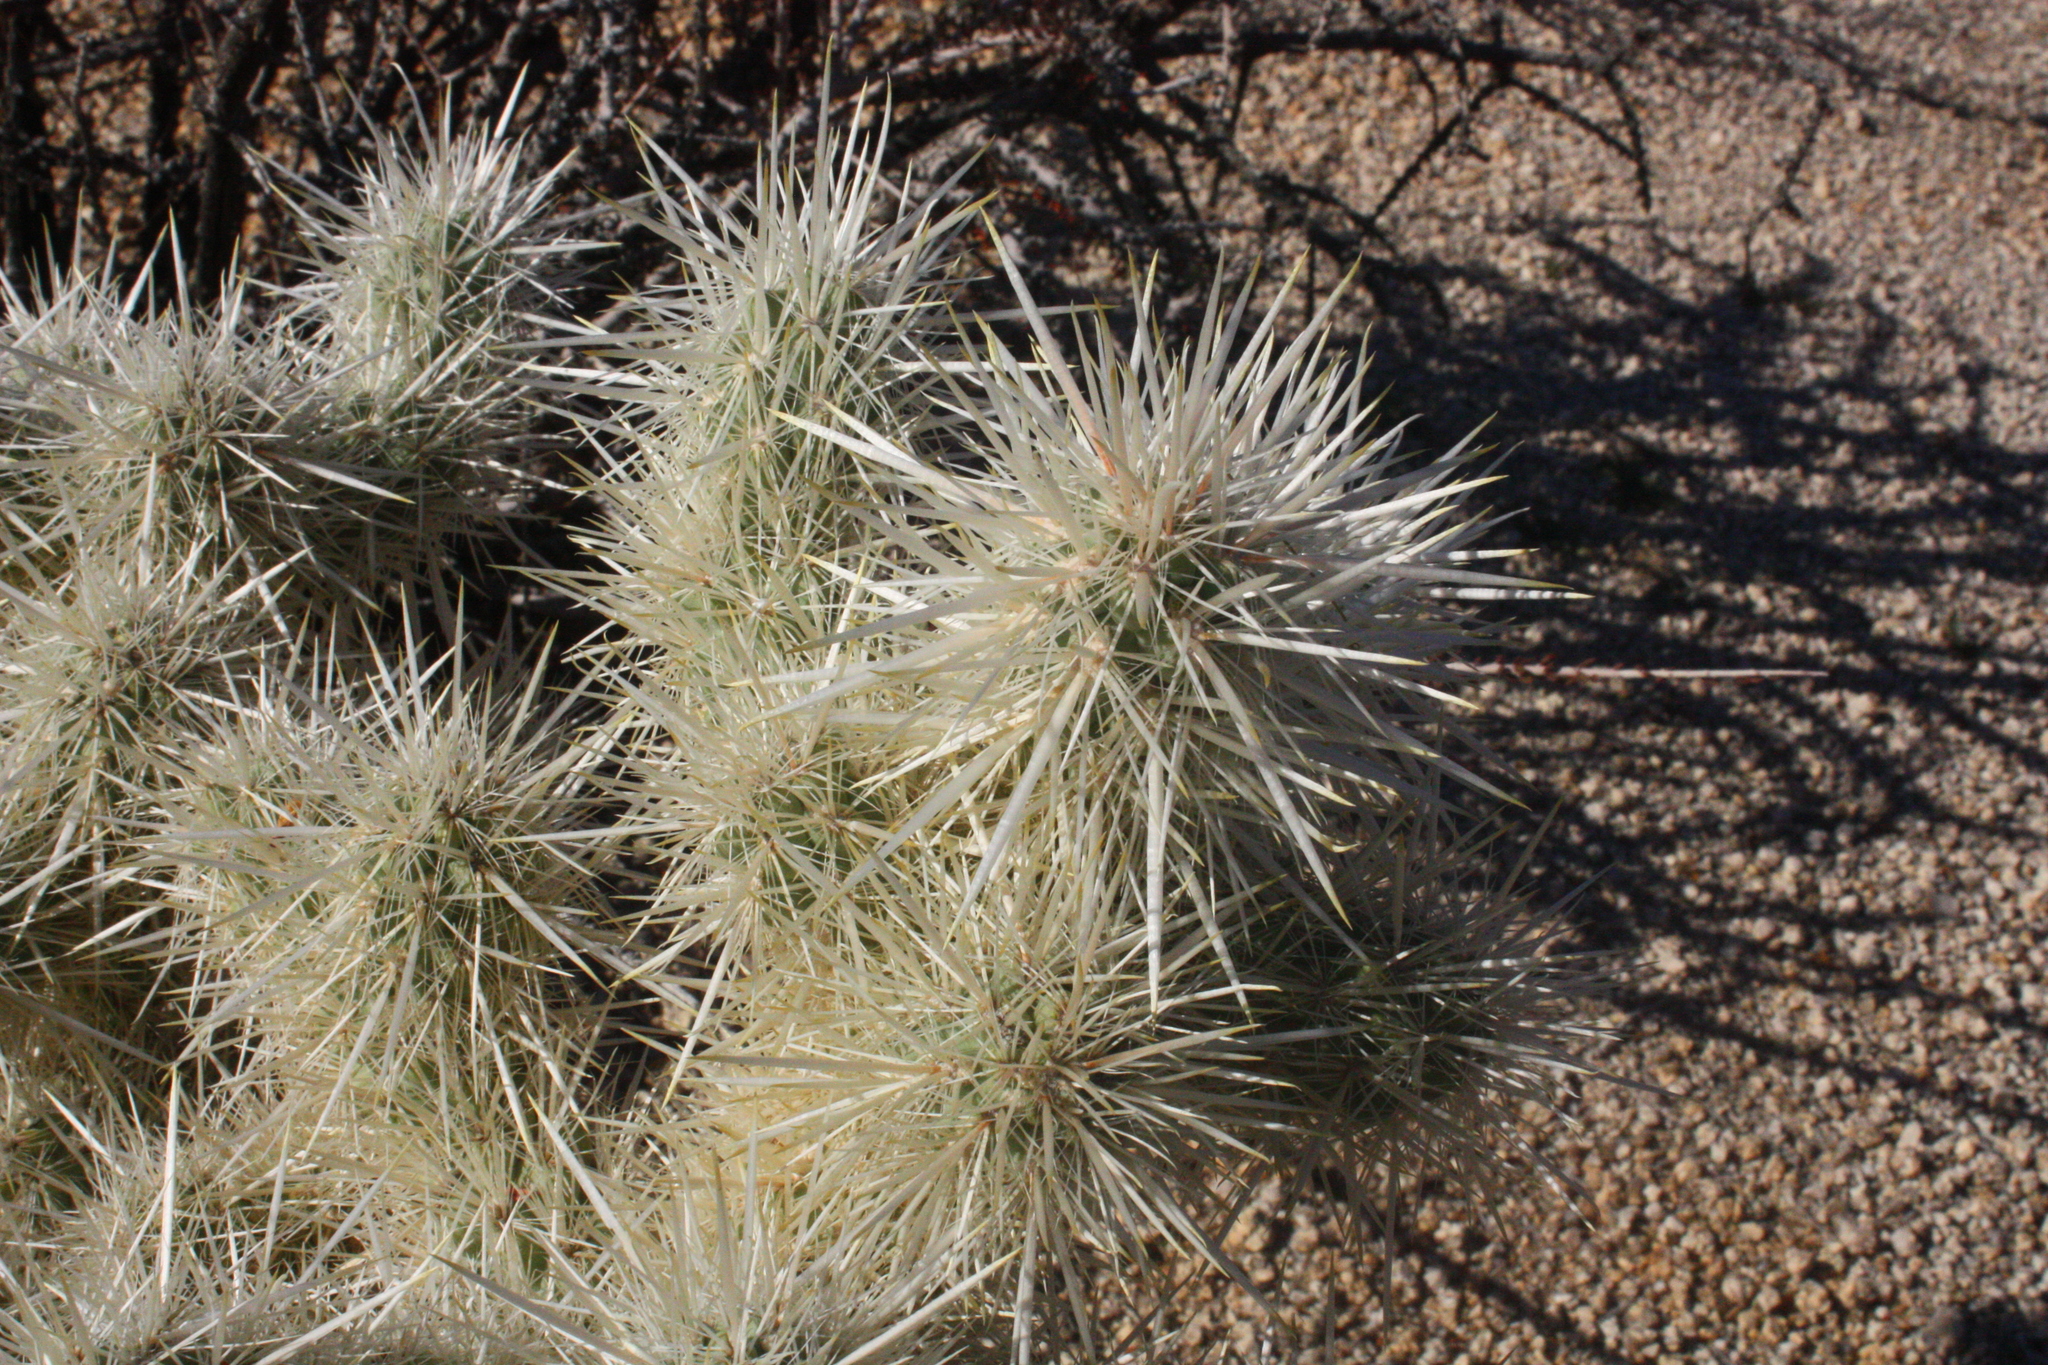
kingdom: Plantae
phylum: Tracheophyta
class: Magnoliopsida
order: Caryophyllales
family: Cactaceae
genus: Cylindropuntia
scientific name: Cylindropuntia echinocarpa
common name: Ground cholla
